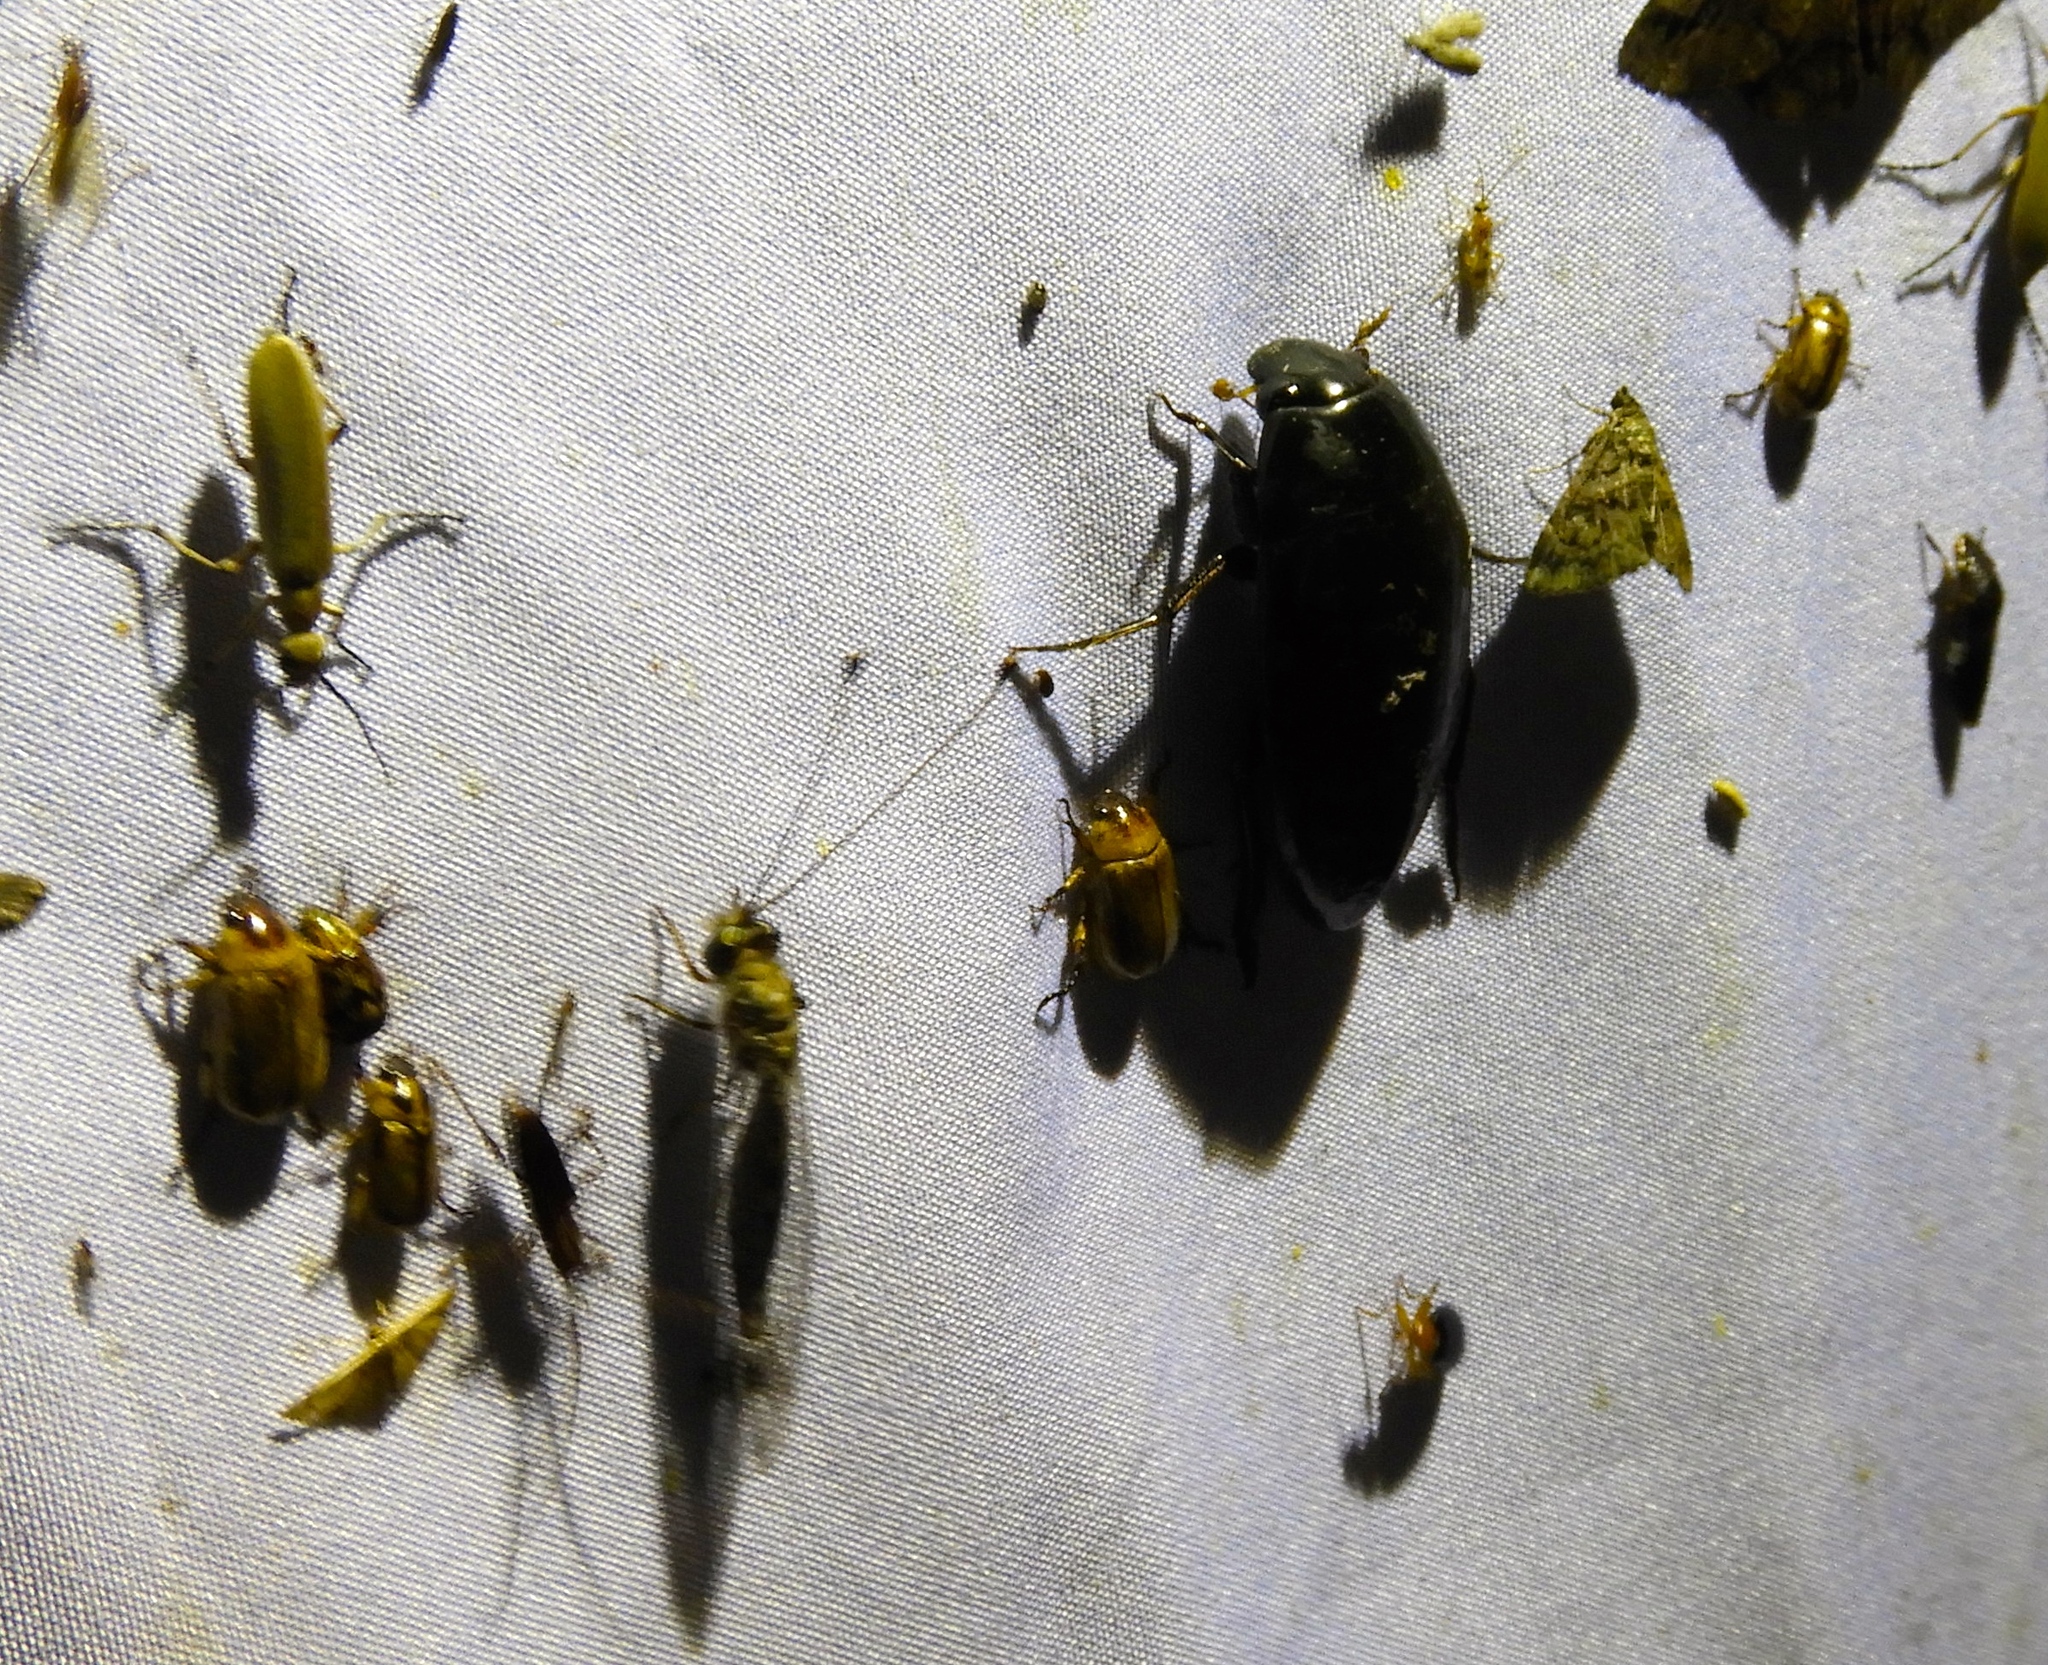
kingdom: Animalia
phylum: Arthropoda
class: Insecta
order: Coleoptera
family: Hydrophilidae
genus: Hydrophilus
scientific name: Hydrophilus
